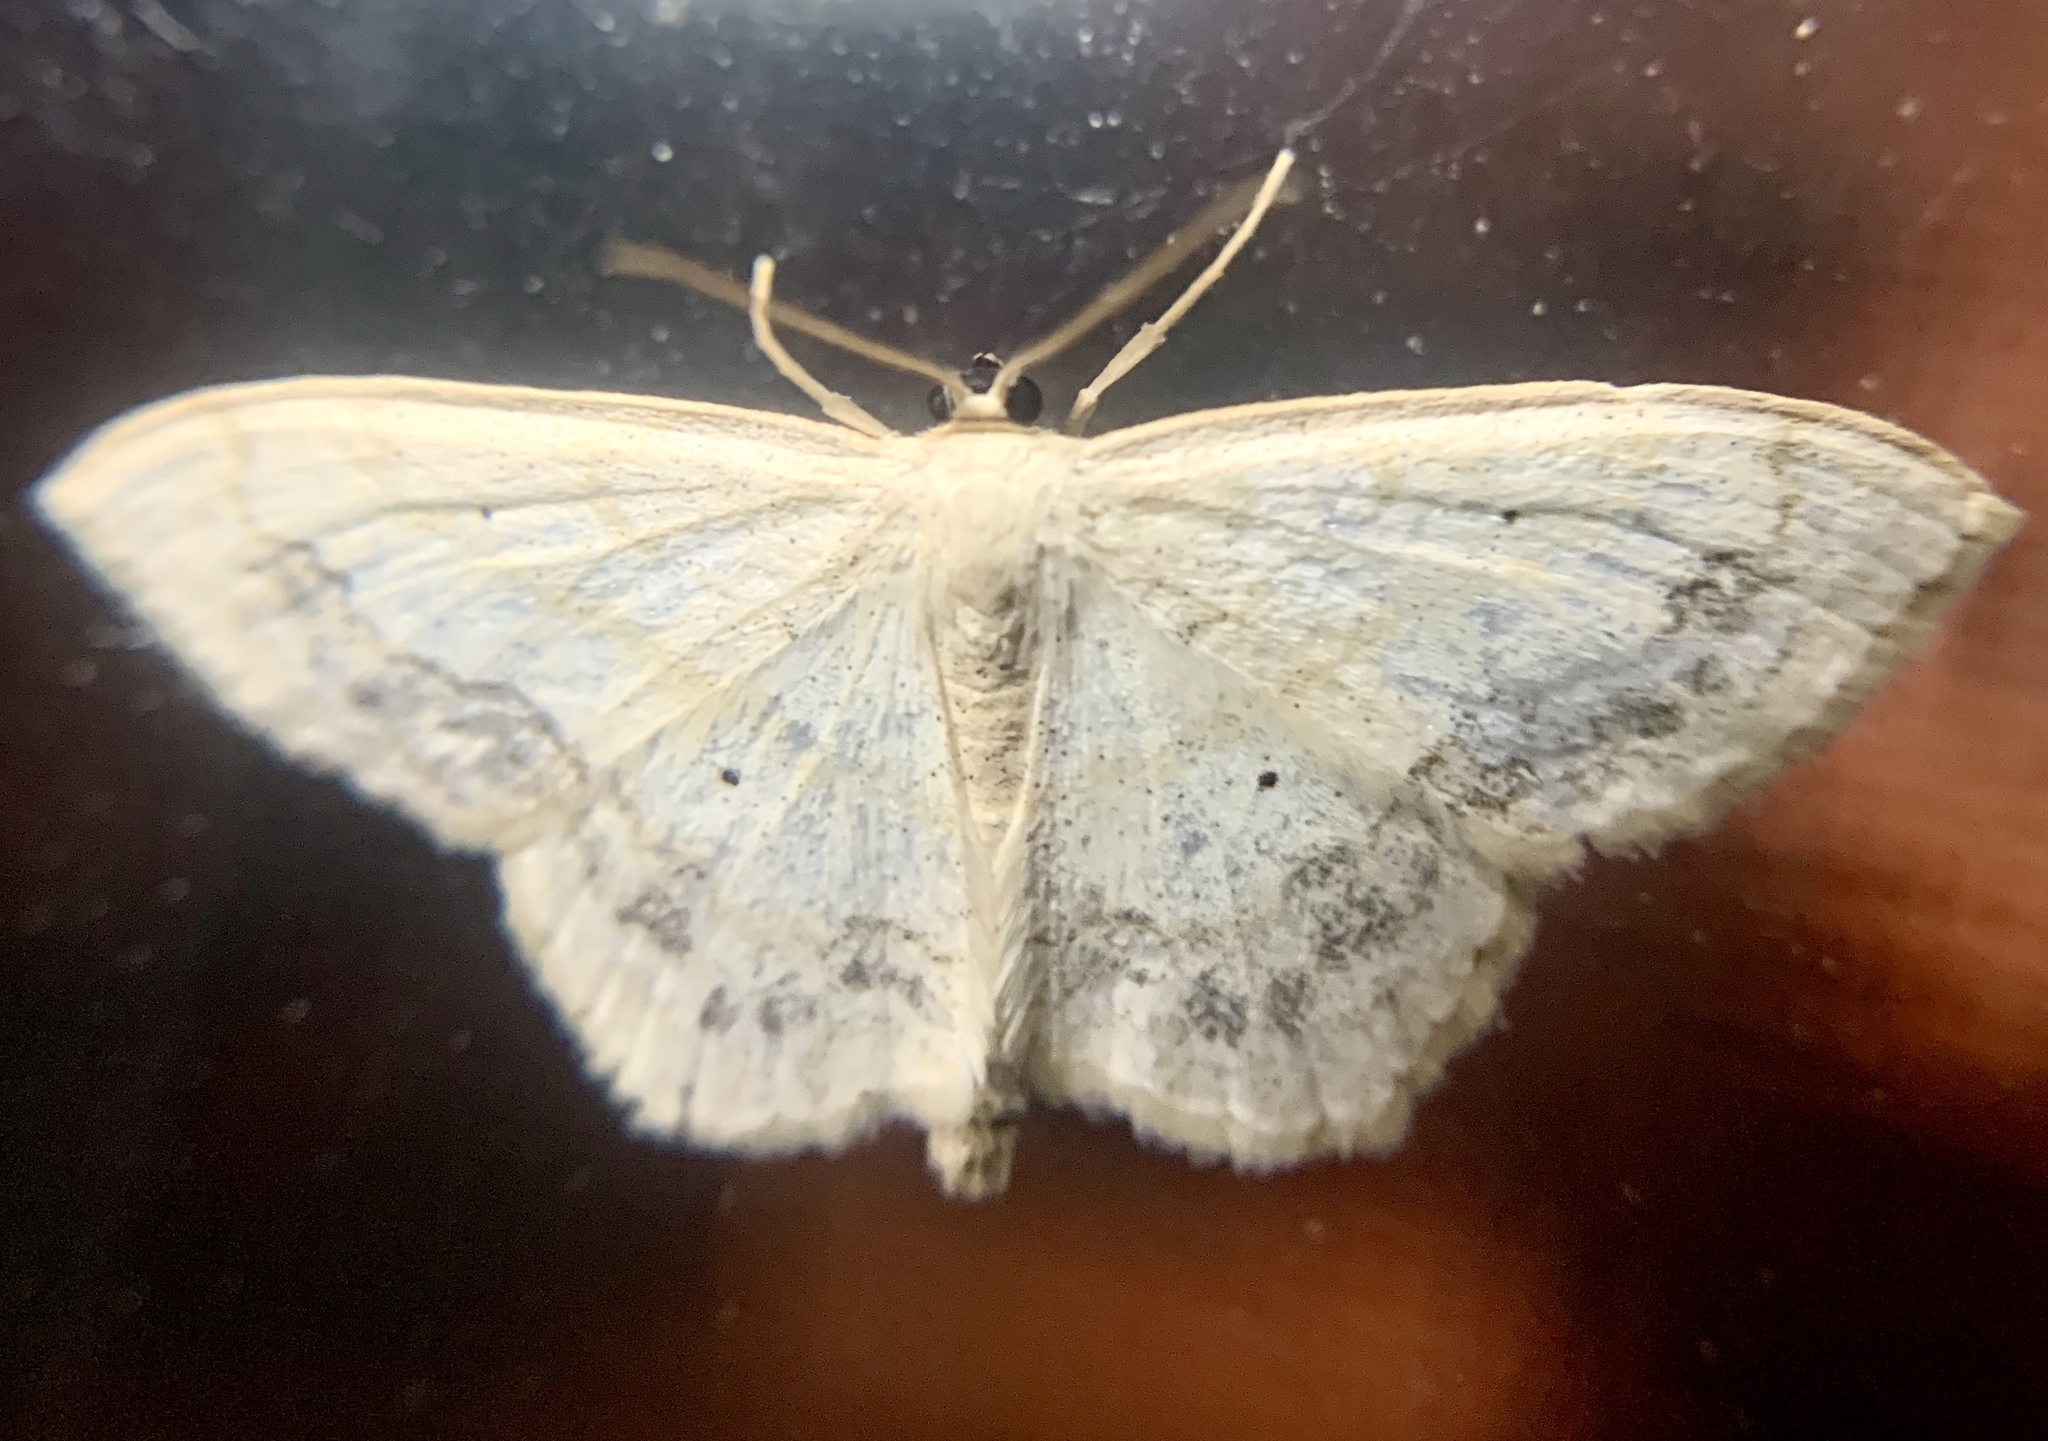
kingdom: Animalia
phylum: Arthropoda
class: Insecta
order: Lepidoptera
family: Geometridae
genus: Scopula
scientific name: Scopula limboundata
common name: Large lace border
